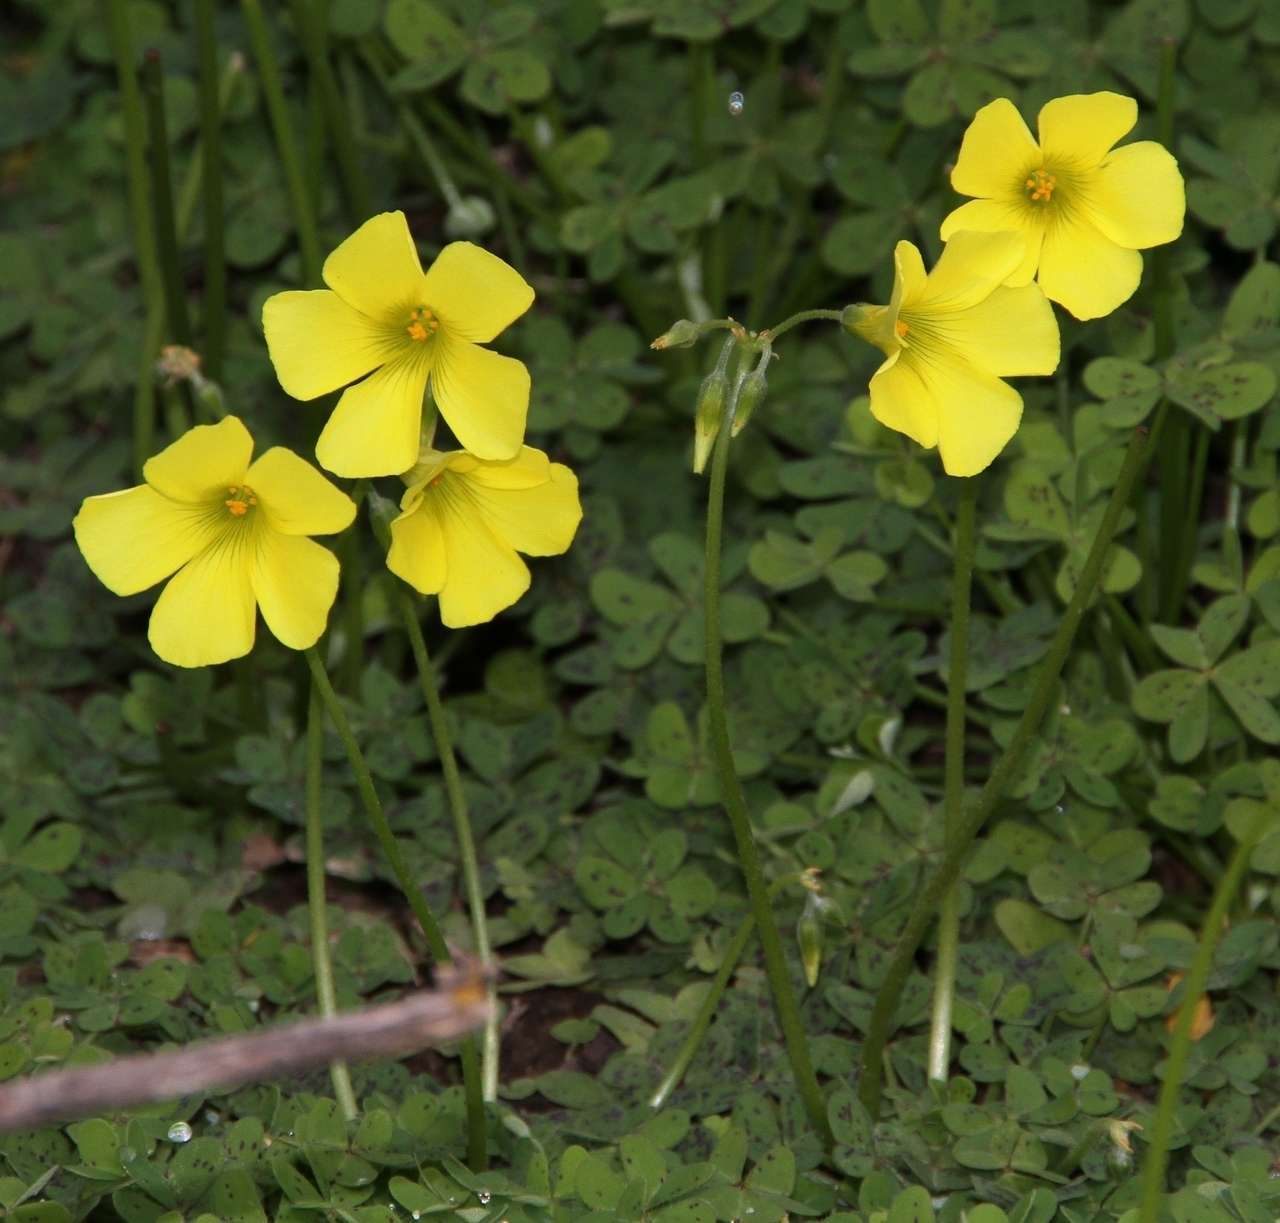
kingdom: Plantae
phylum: Tracheophyta
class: Magnoliopsida
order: Oxalidales
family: Oxalidaceae
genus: Oxalis
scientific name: Oxalis pes-caprae
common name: Bermuda-buttercup
